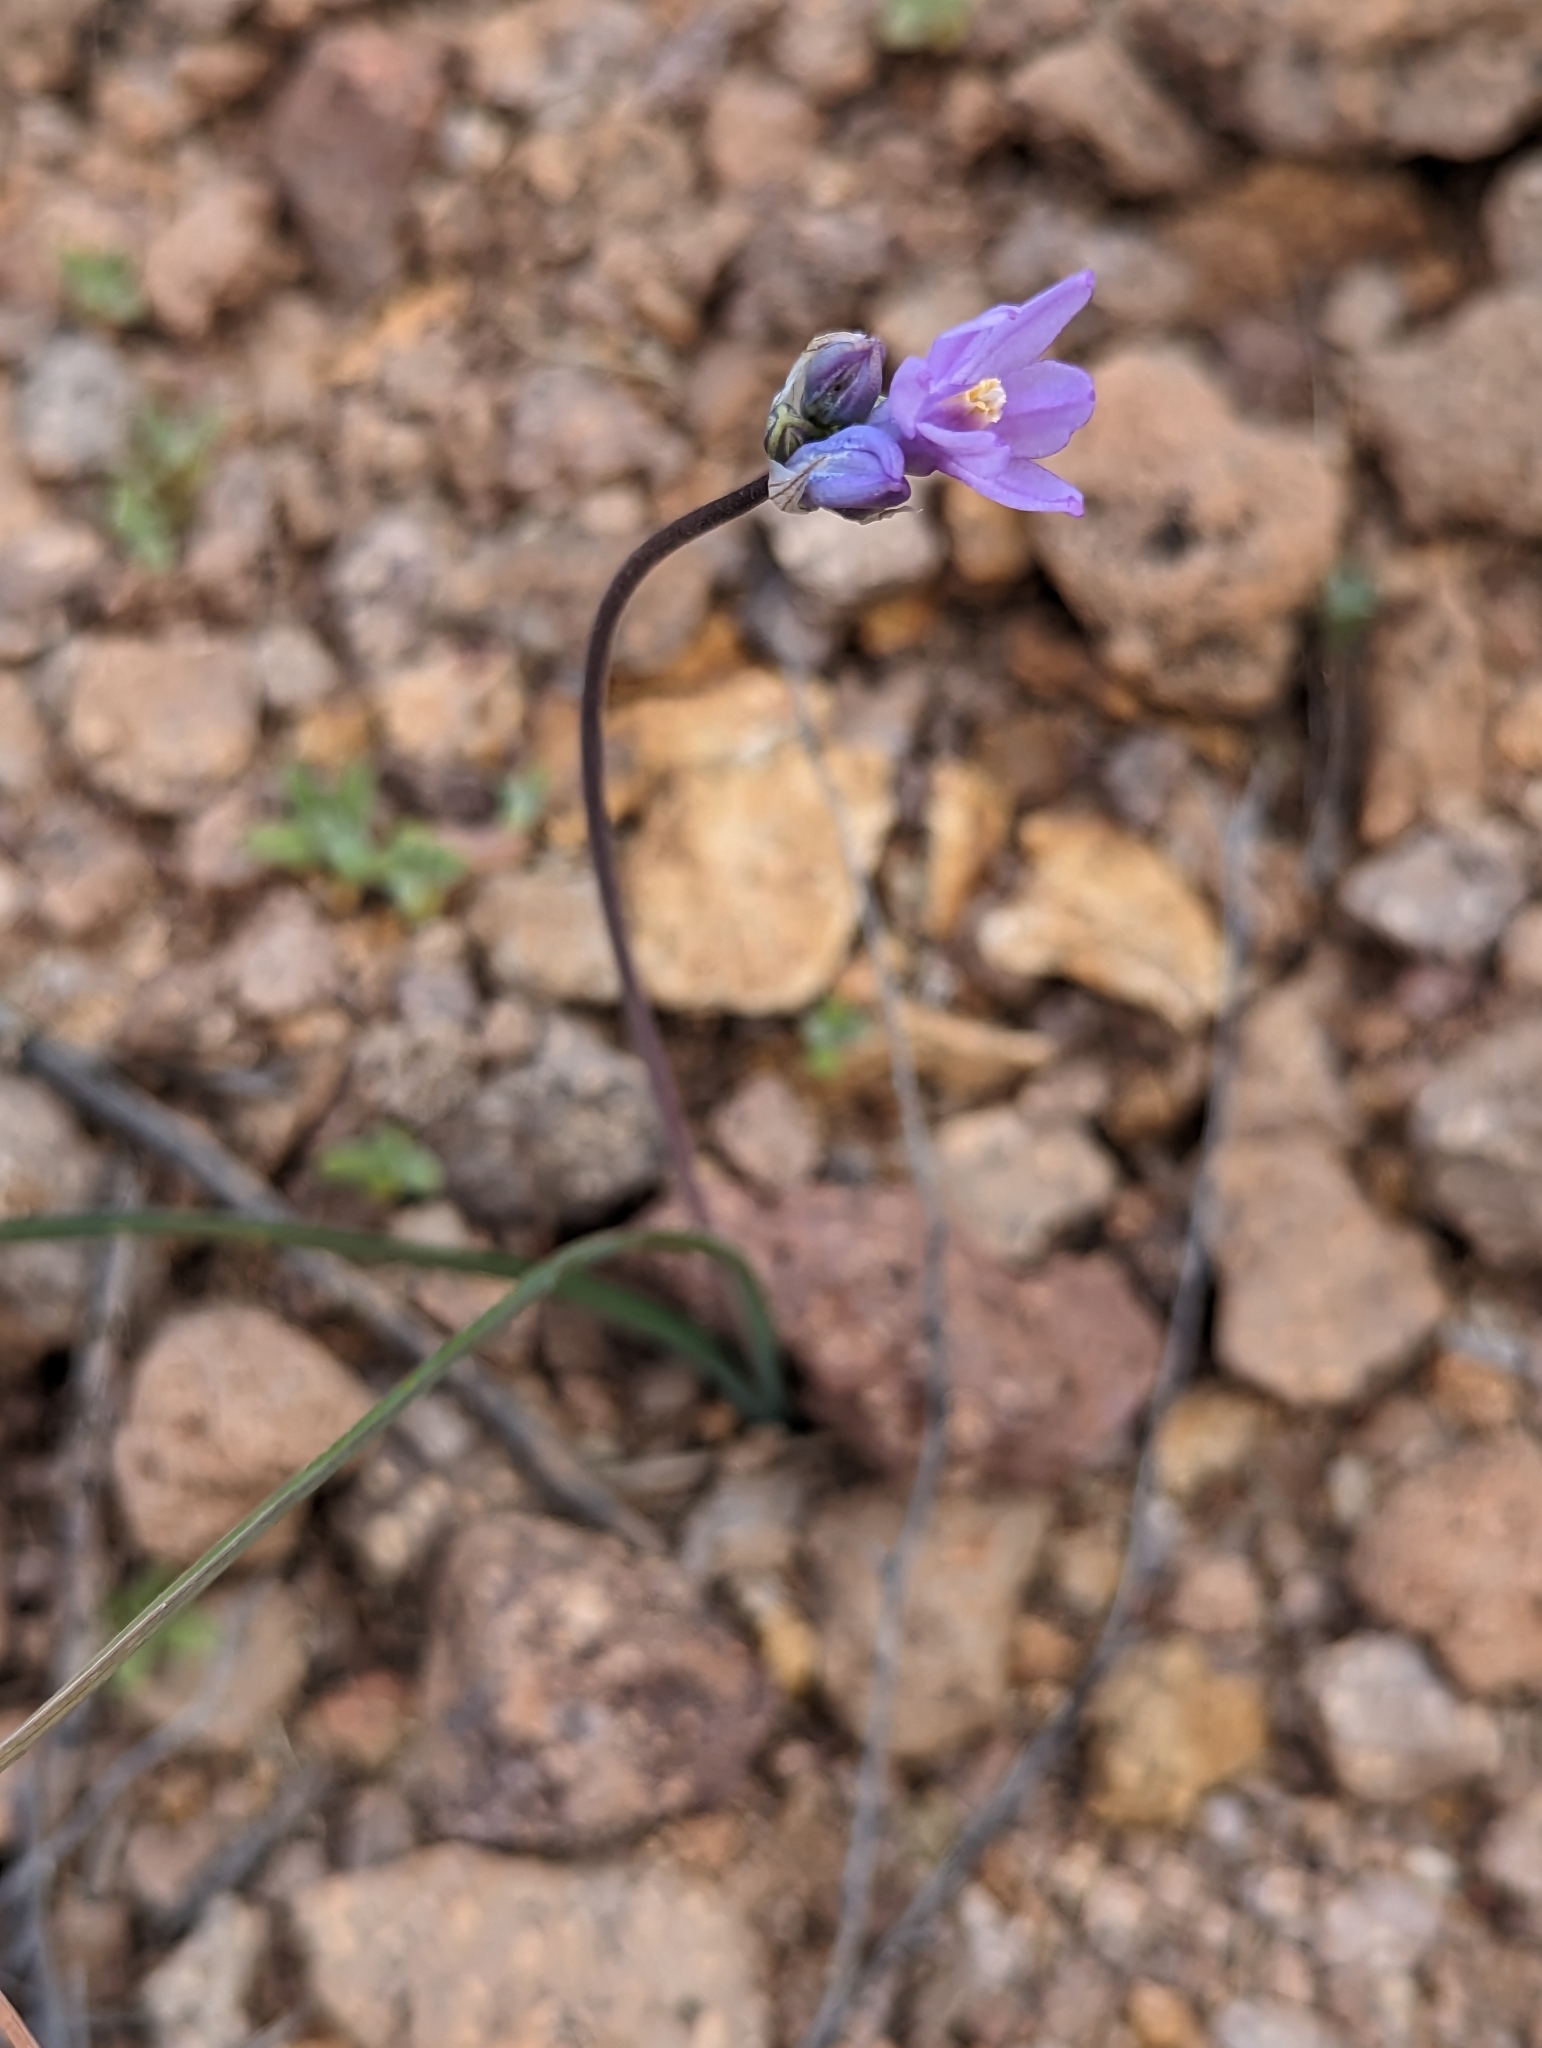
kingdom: Plantae
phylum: Tracheophyta
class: Liliopsida
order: Asparagales
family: Asparagaceae
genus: Dipterostemon
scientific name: Dipterostemon capitatus
